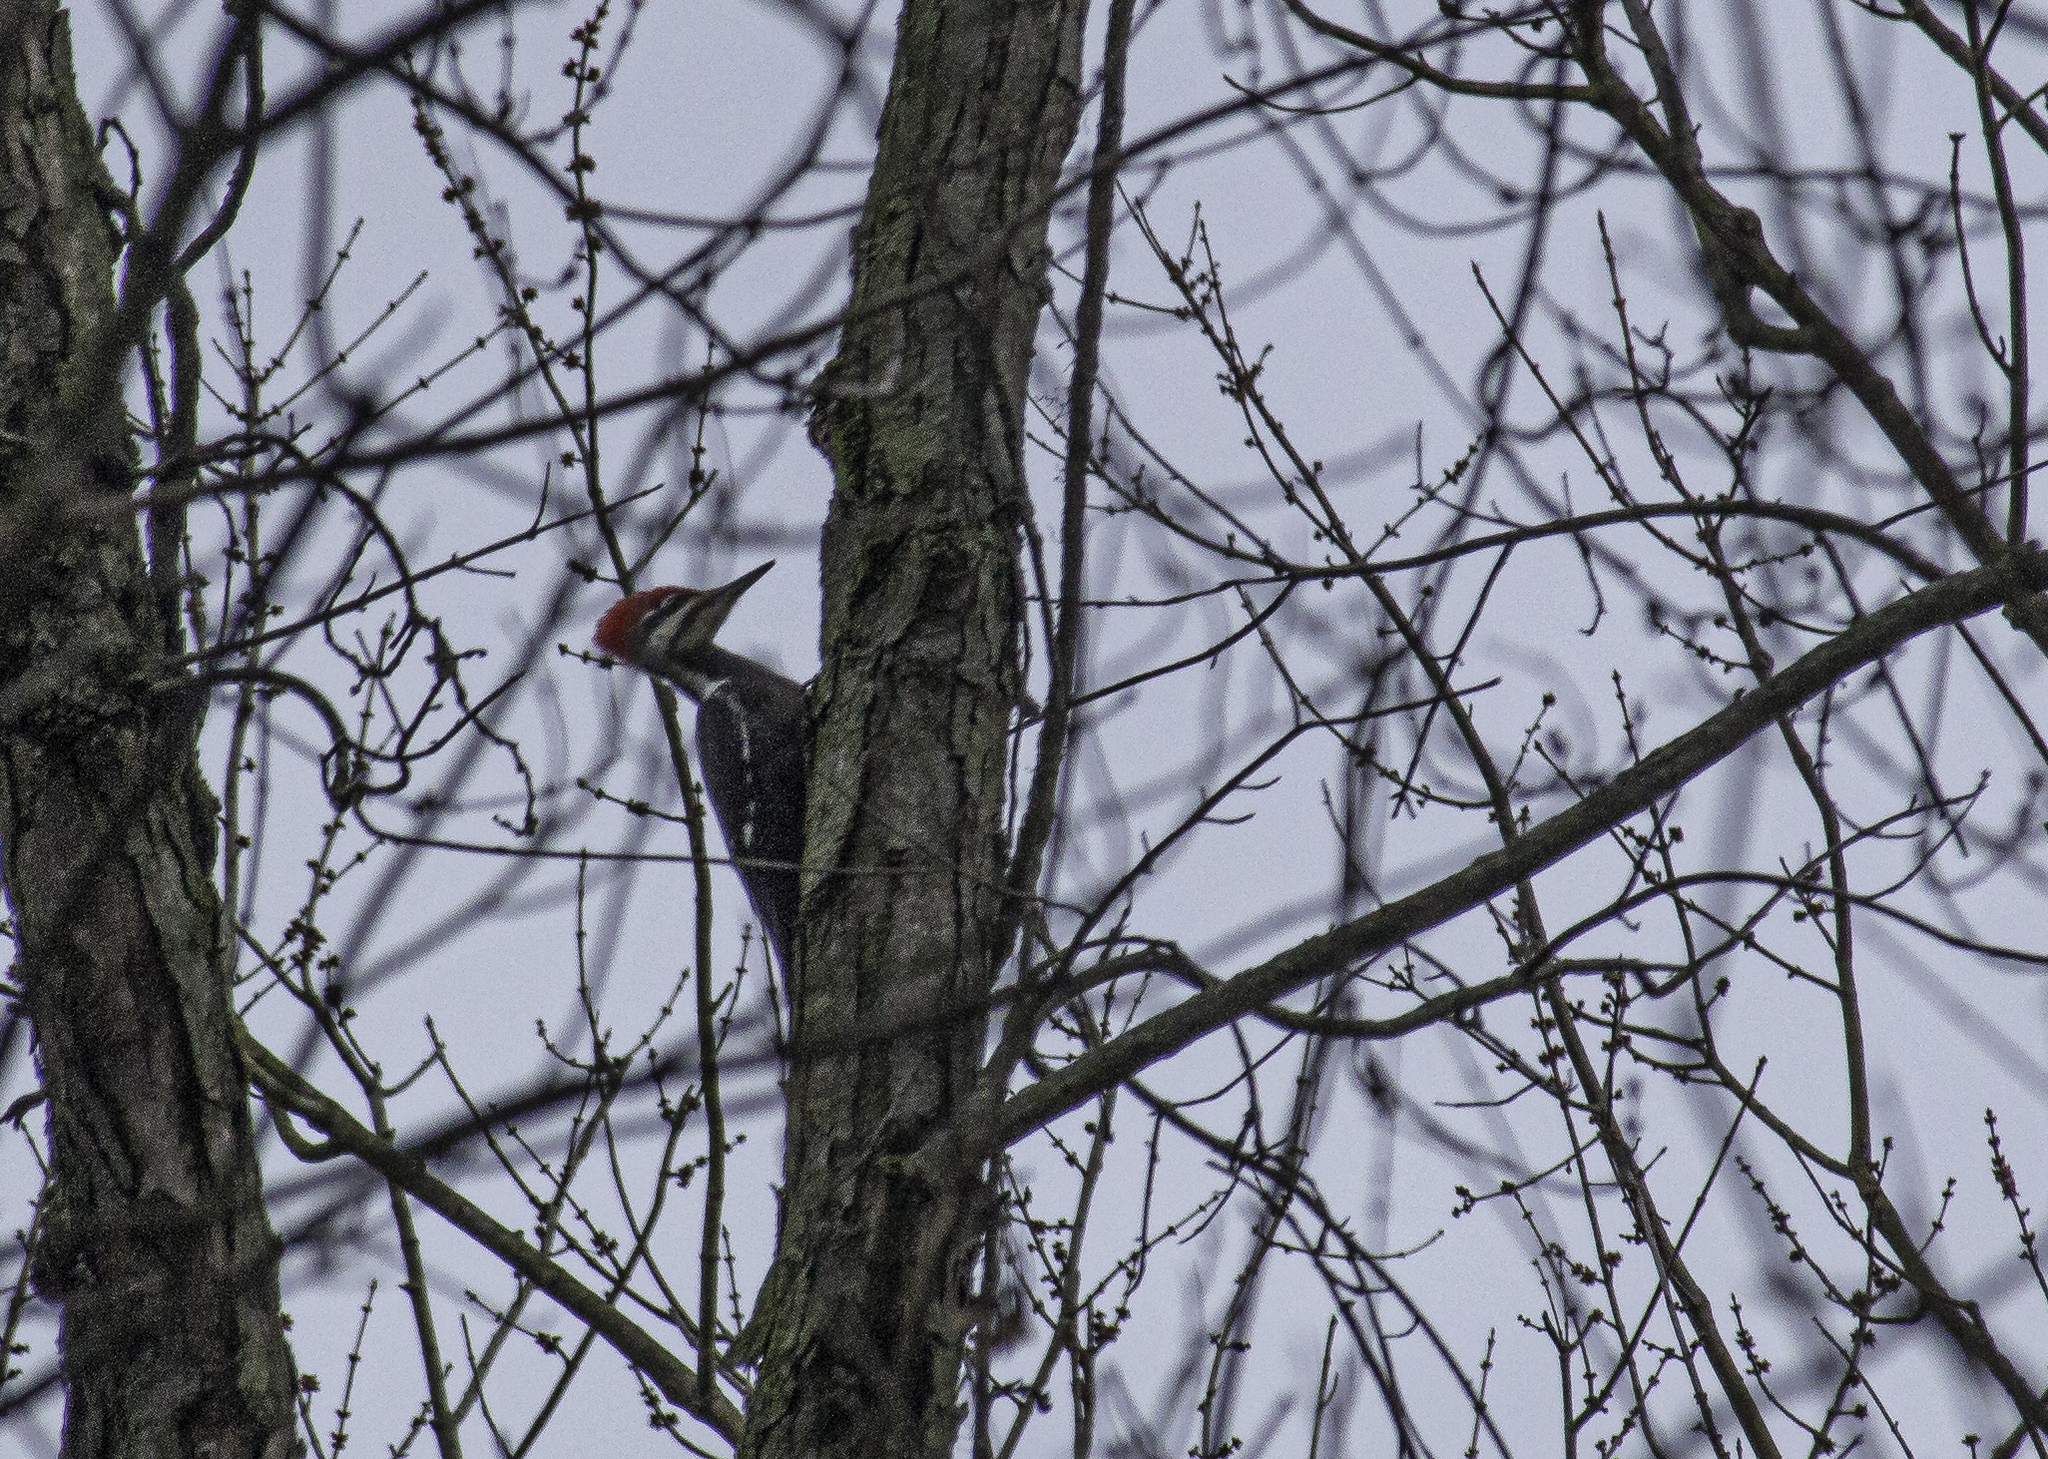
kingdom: Animalia
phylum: Chordata
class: Aves
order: Piciformes
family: Picidae
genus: Dryocopus
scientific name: Dryocopus pileatus
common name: Pileated woodpecker
